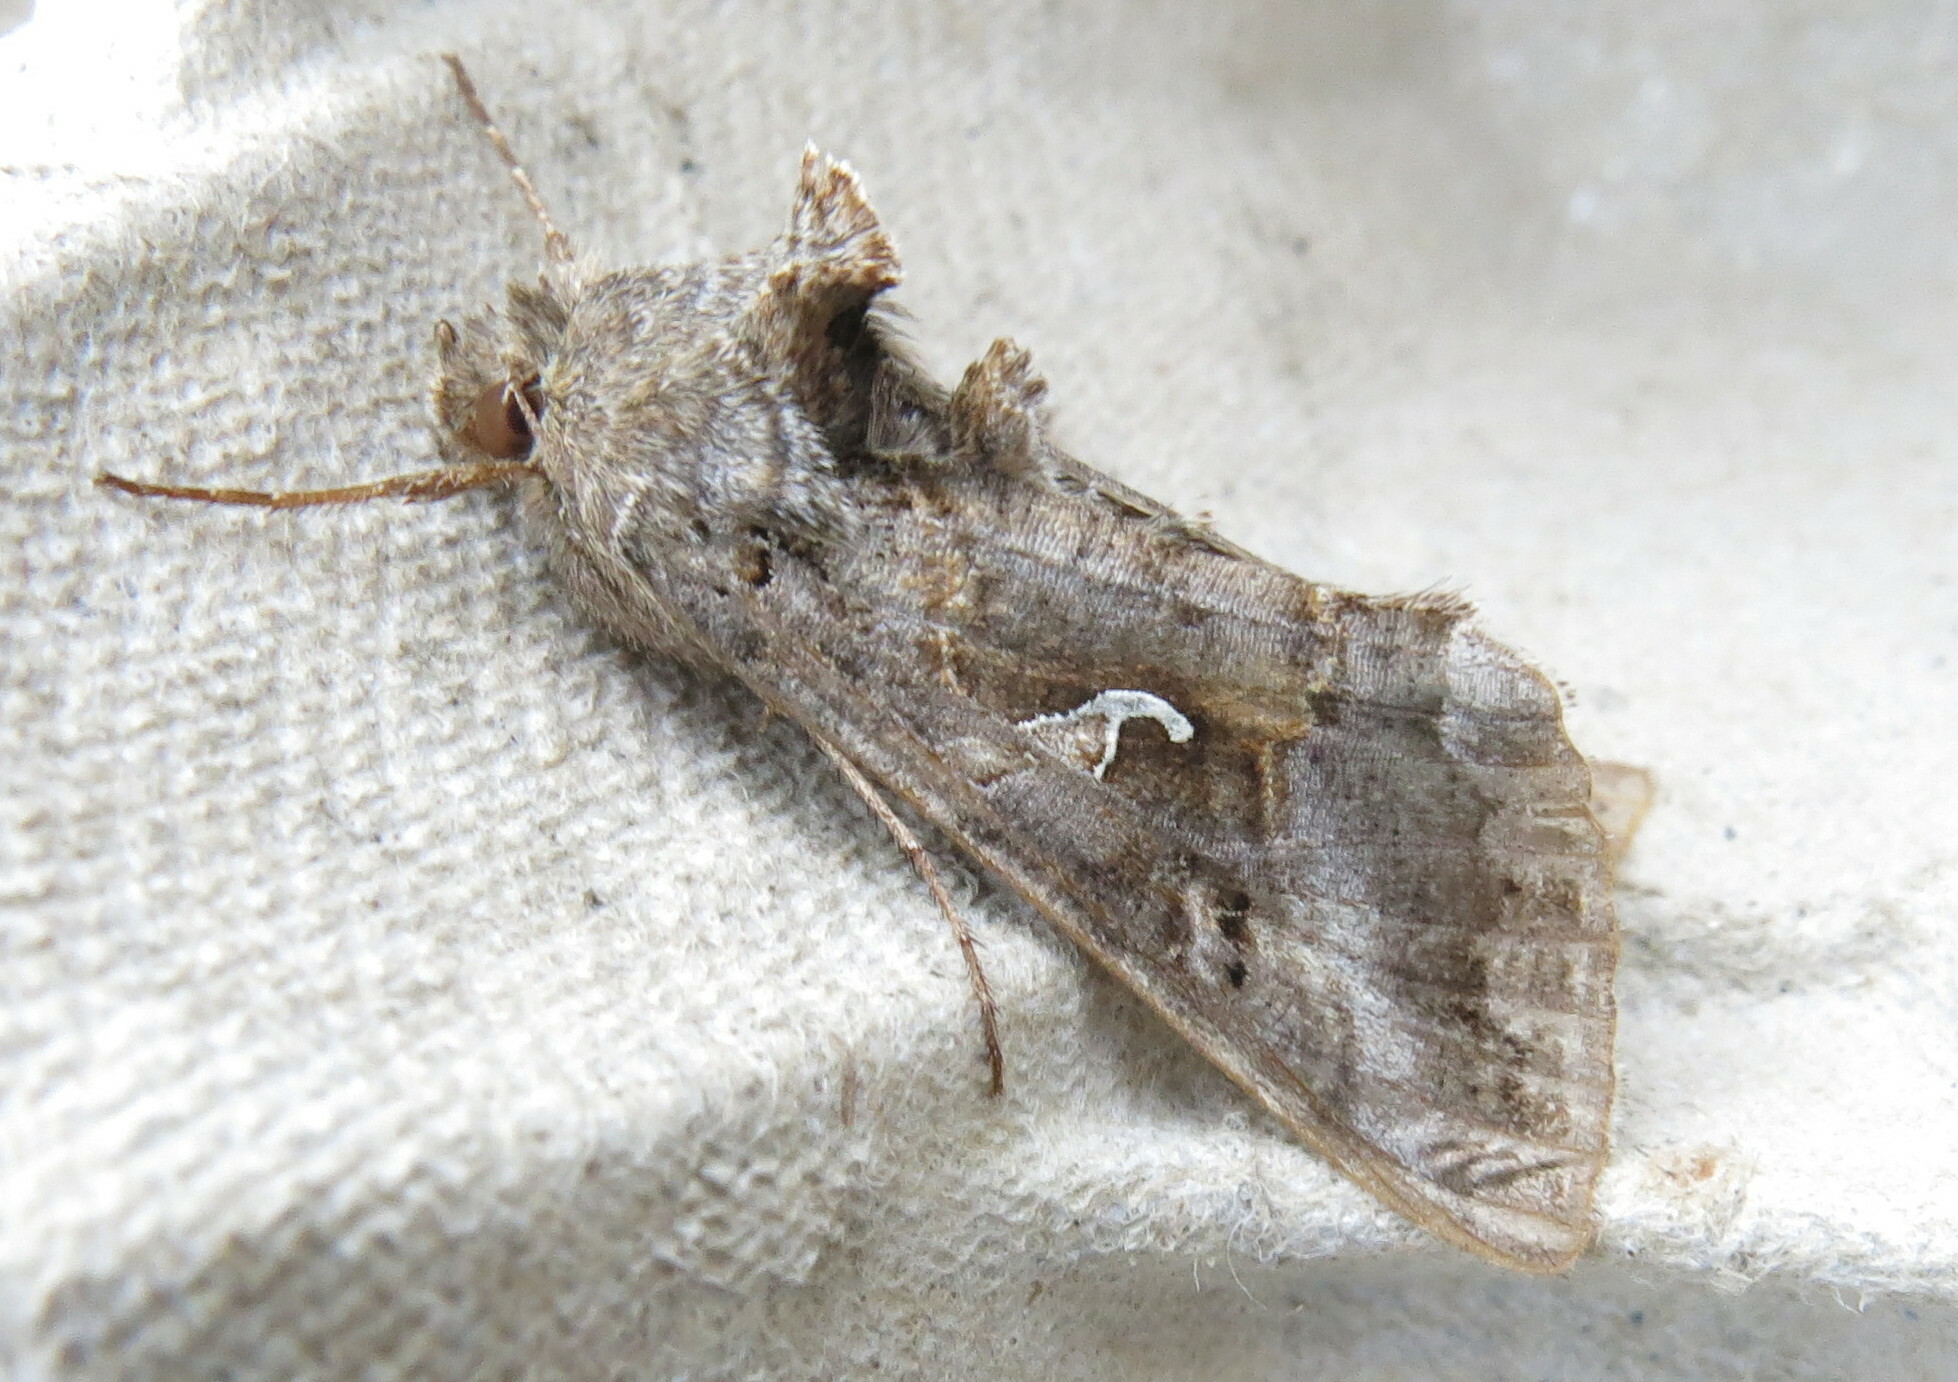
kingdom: Animalia
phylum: Arthropoda
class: Insecta
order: Lepidoptera
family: Noctuidae
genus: Autographa
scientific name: Autographa gamma
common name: Silver y
